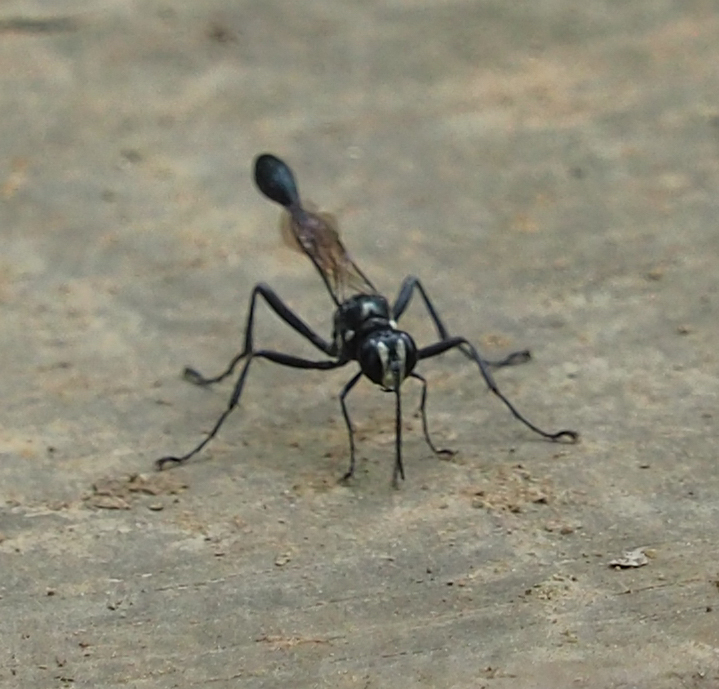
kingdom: Animalia
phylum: Arthropoda
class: Insecta
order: Hymenoptera
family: Sphecidae
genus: Eremnophila
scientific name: Eremnophila aureonotata
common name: Gold-marked thread-waisted wasp
